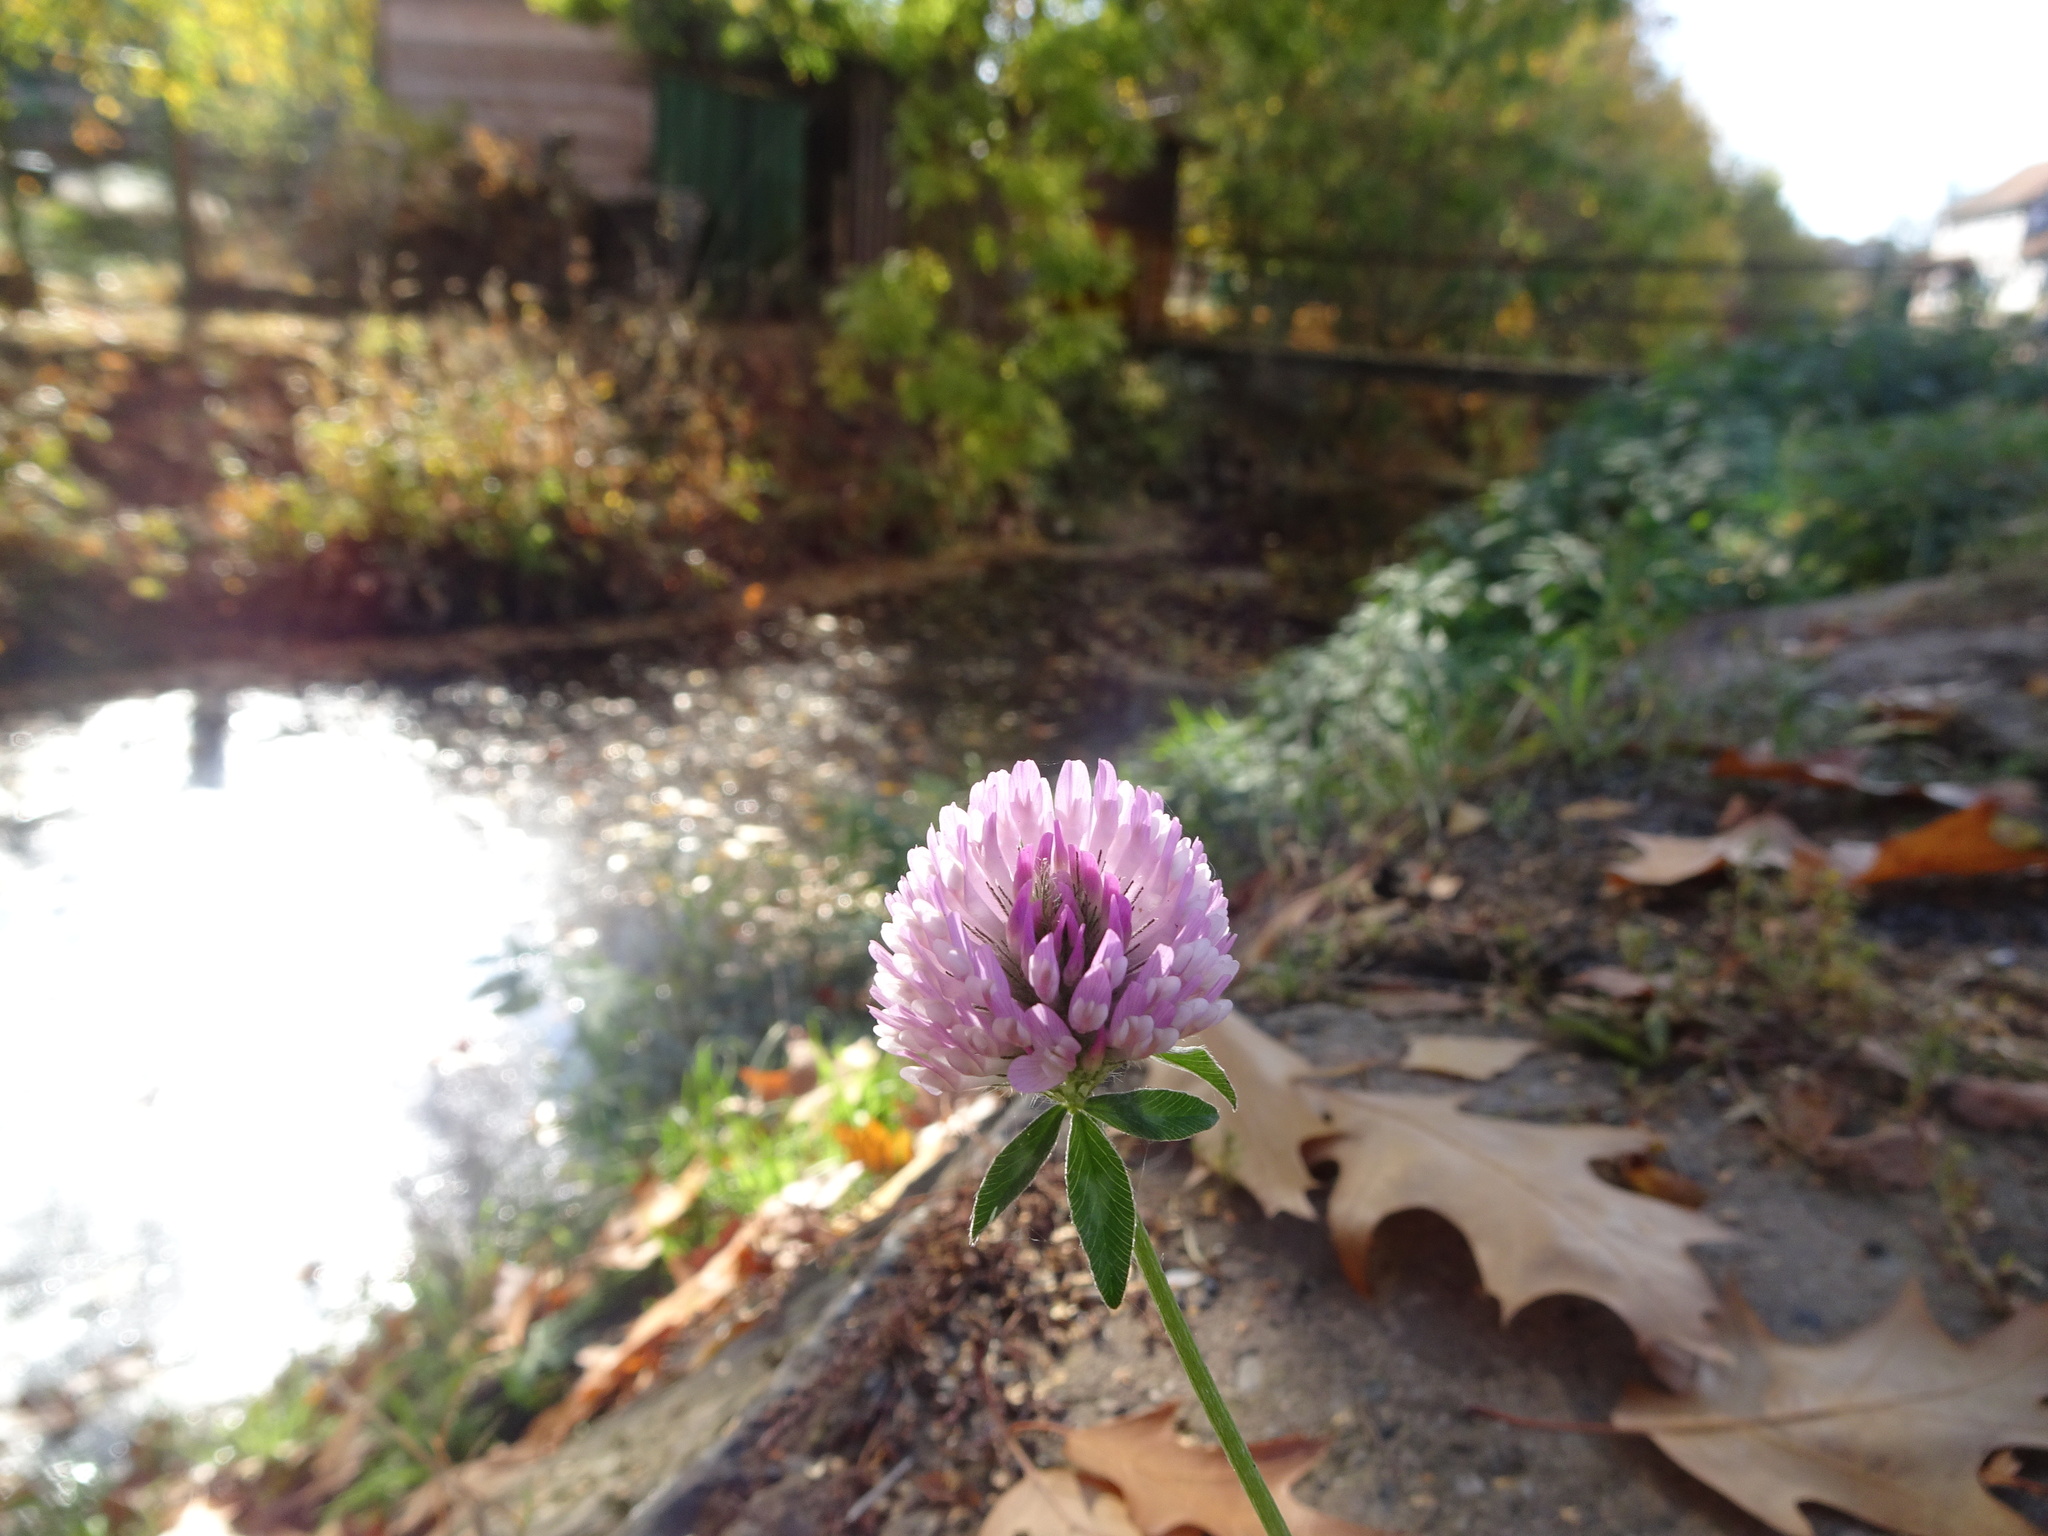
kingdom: Plantae
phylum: Tracheophyta
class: Magnoliopsida
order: Fabales
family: Fabaceae
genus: Trifolium
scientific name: Trifolium medium
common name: Zigzag clover
